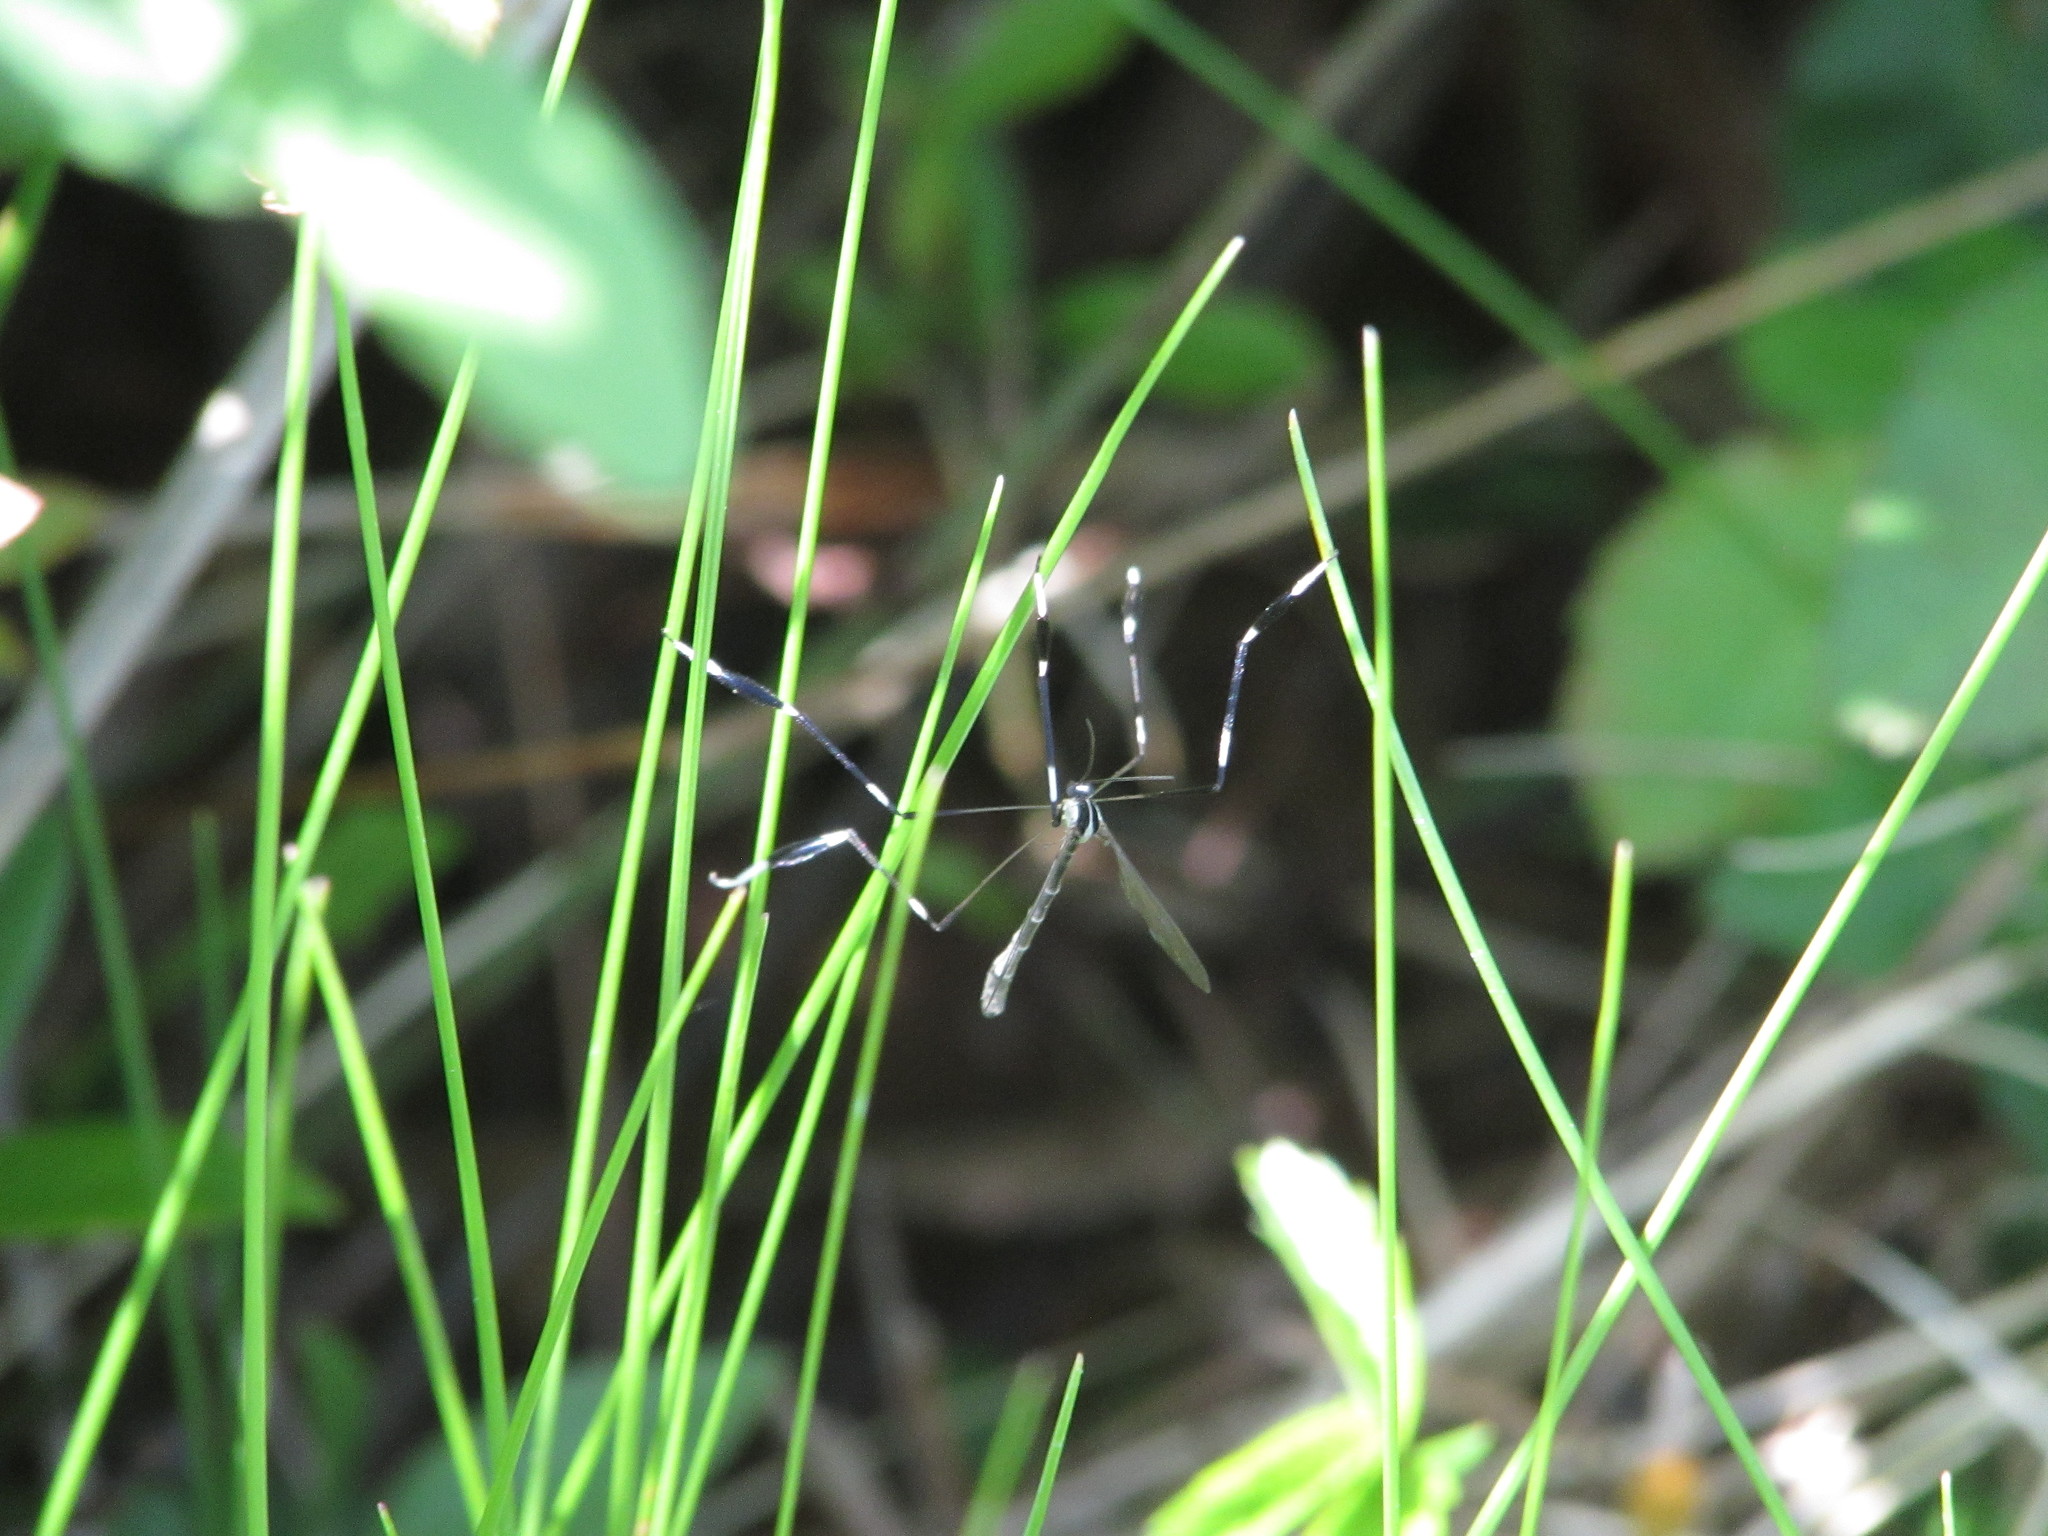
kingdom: Animalia
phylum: Arthropoda
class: Insecta
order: Diptera
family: Ptychopteridae
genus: Bittacomorpha
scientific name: Bittacomorpha clavipes
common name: Eastern phantom crane fly
